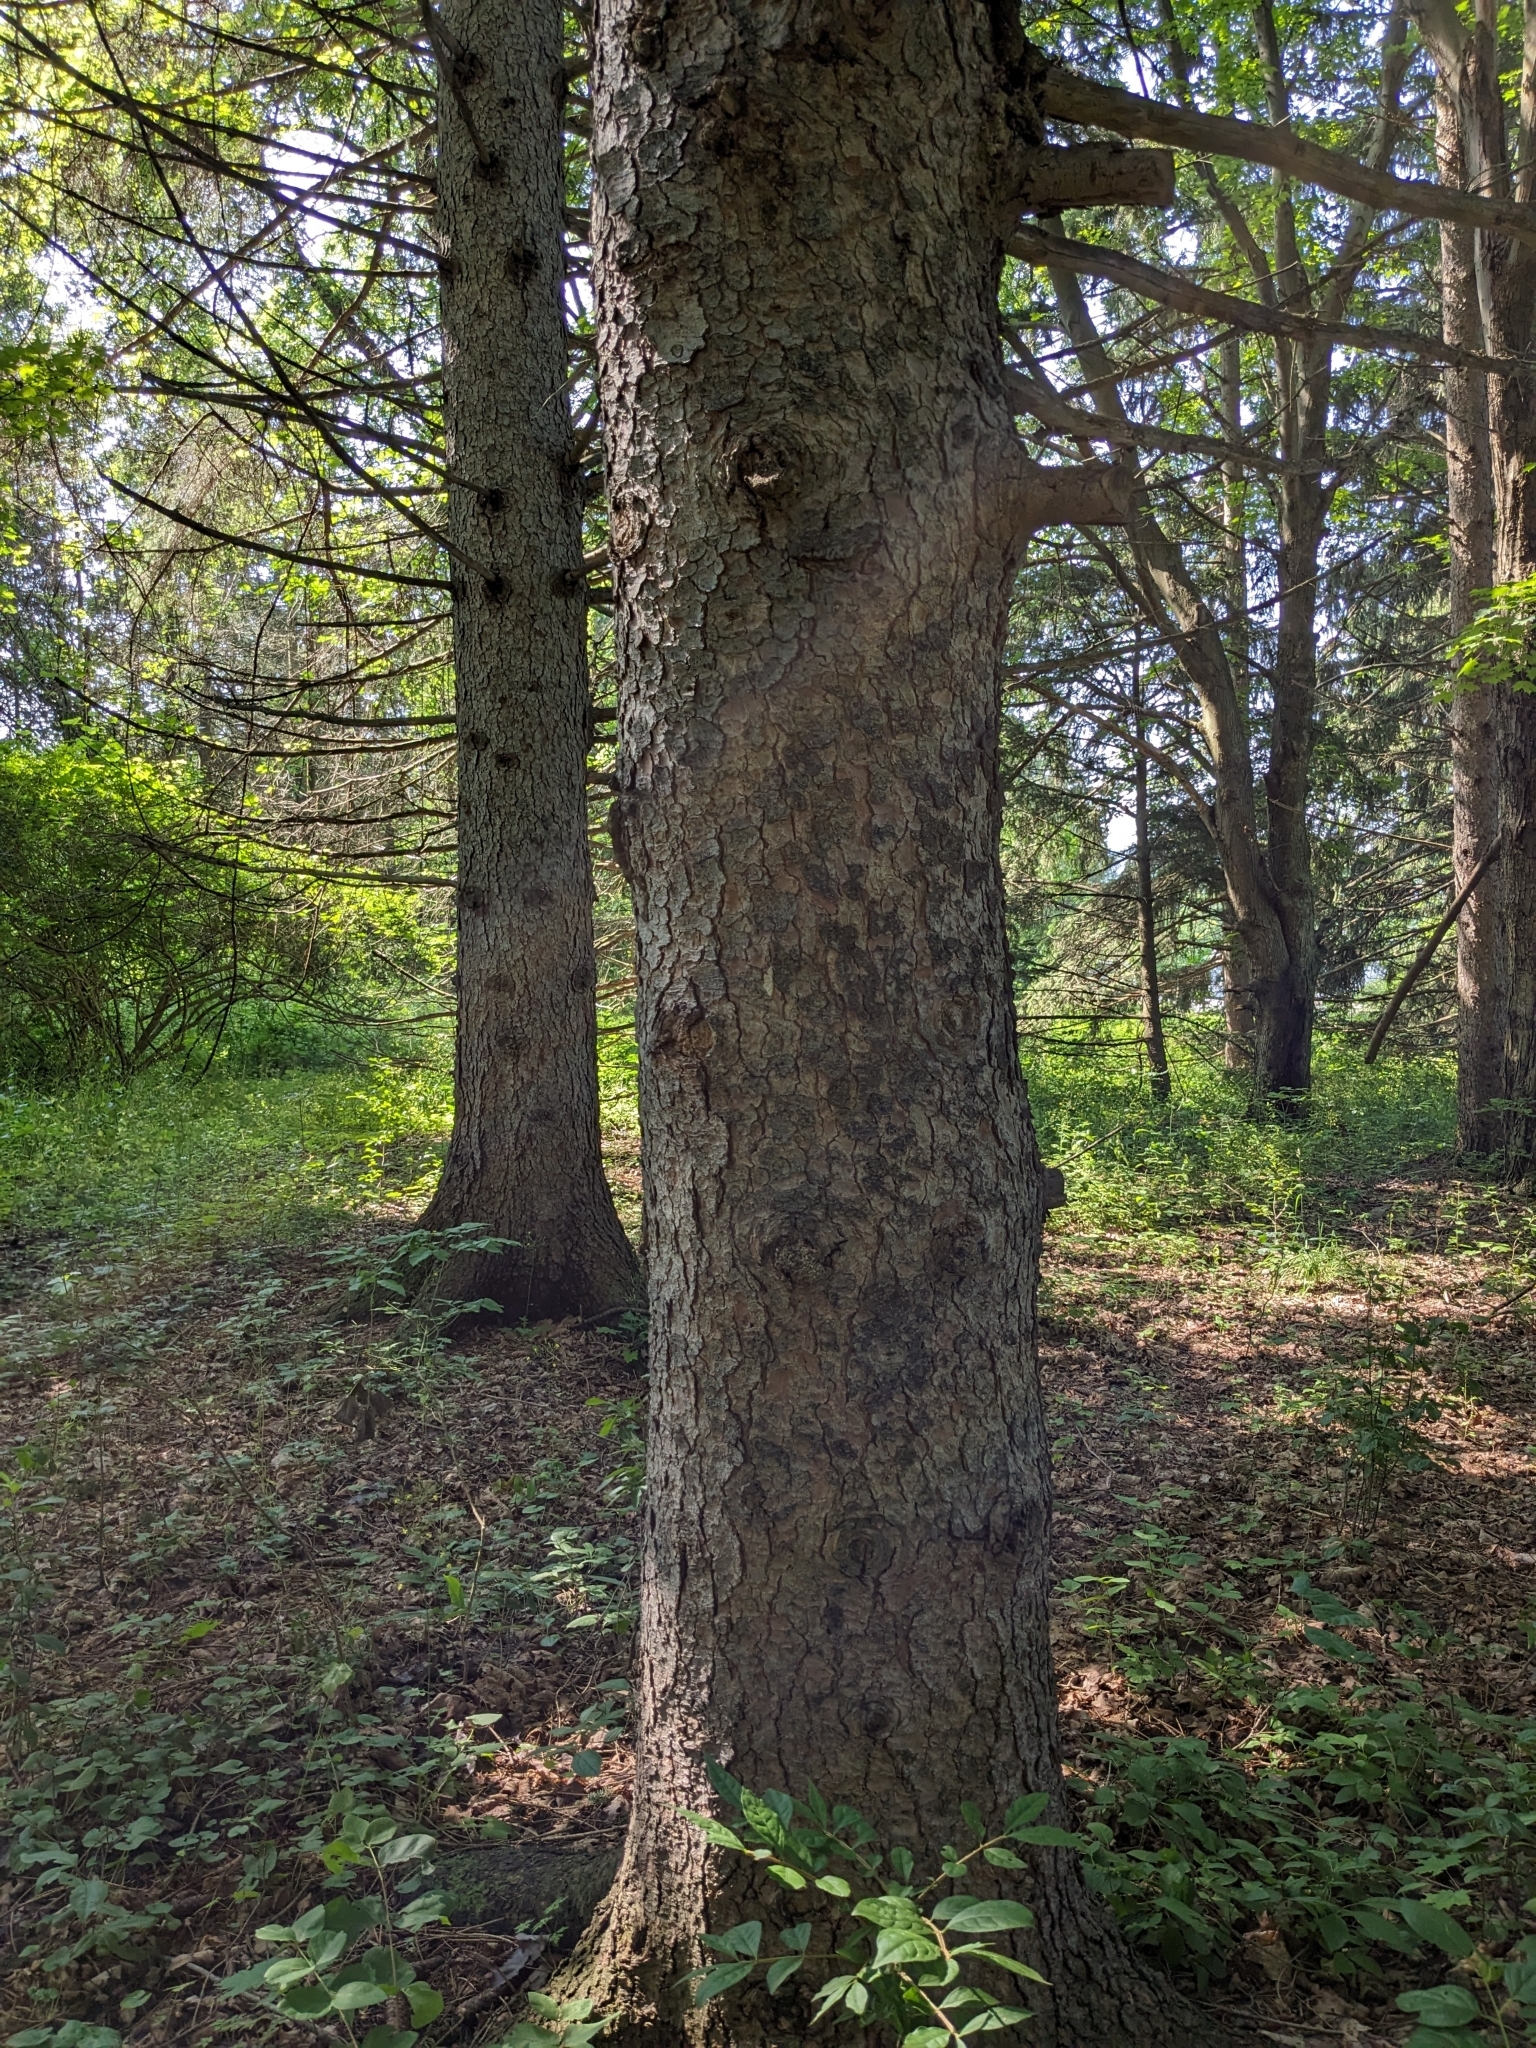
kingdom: Plantae
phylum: Tracheophyta
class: Pinopsida
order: Pinales
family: Pinaceae
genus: Picea
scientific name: Picea abies
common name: Norway spruce
